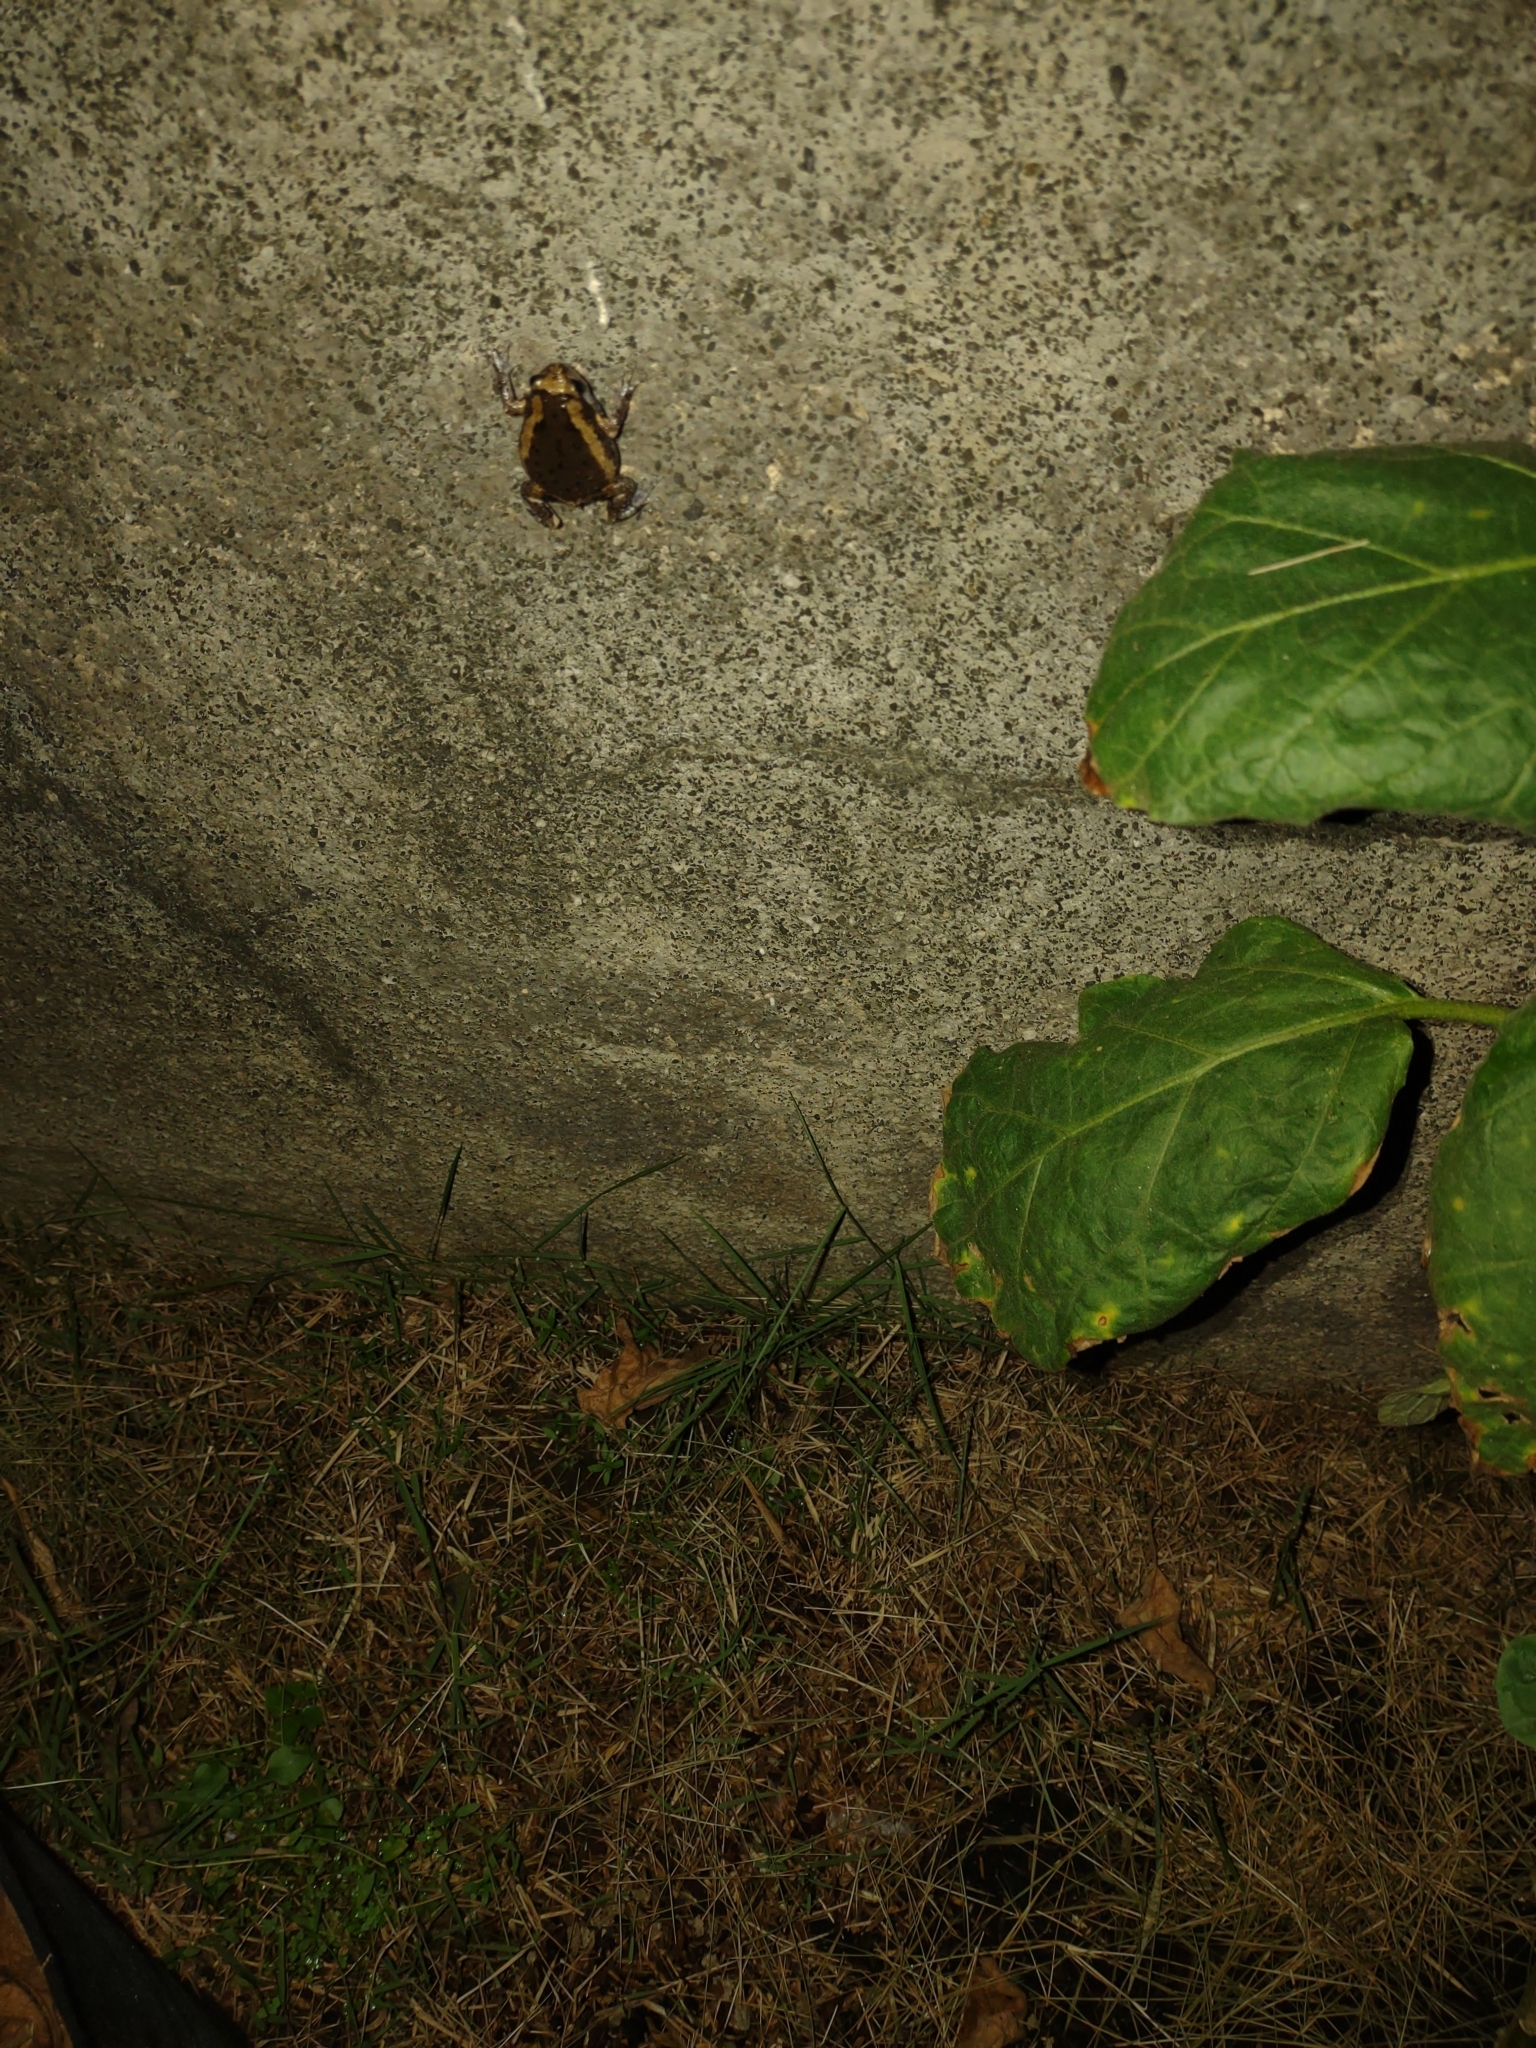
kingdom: Animalia
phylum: Chordata
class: Amphibia
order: Anura
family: Microhylidae
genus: Kaloula
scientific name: Kaloula pulchra
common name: Common,banded bullfrog
